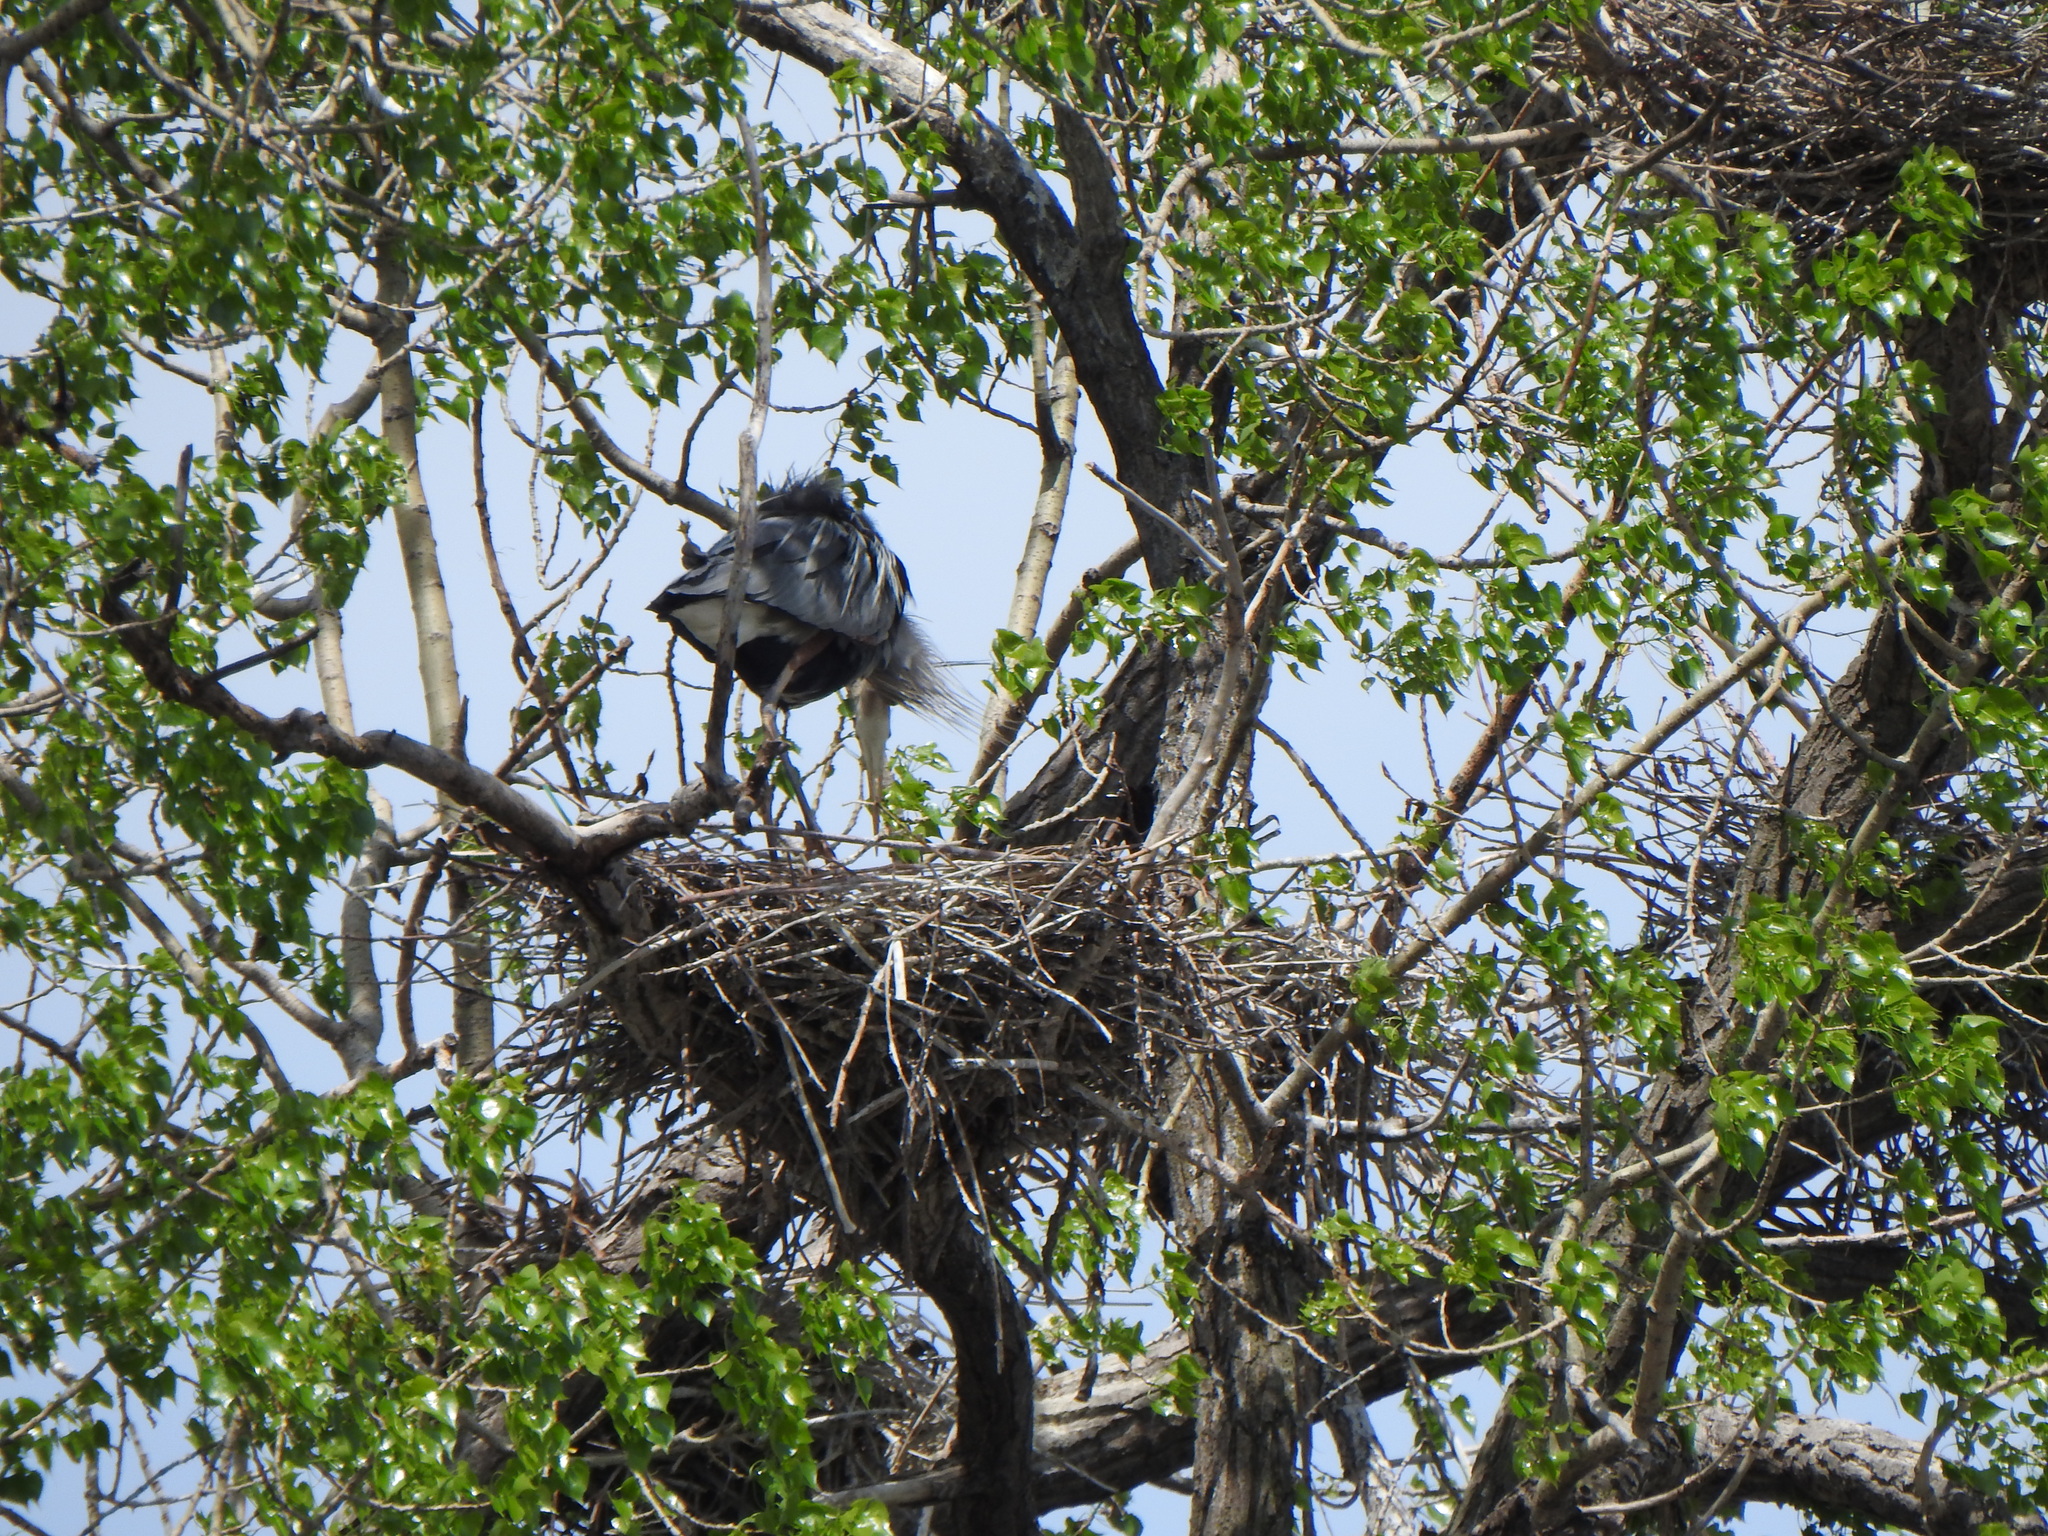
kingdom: Animalia
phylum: Chordata
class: Aves
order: Pelecaniformes
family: Ardeidae
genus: Ardea
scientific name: Ardea herodias
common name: Great blue heron
